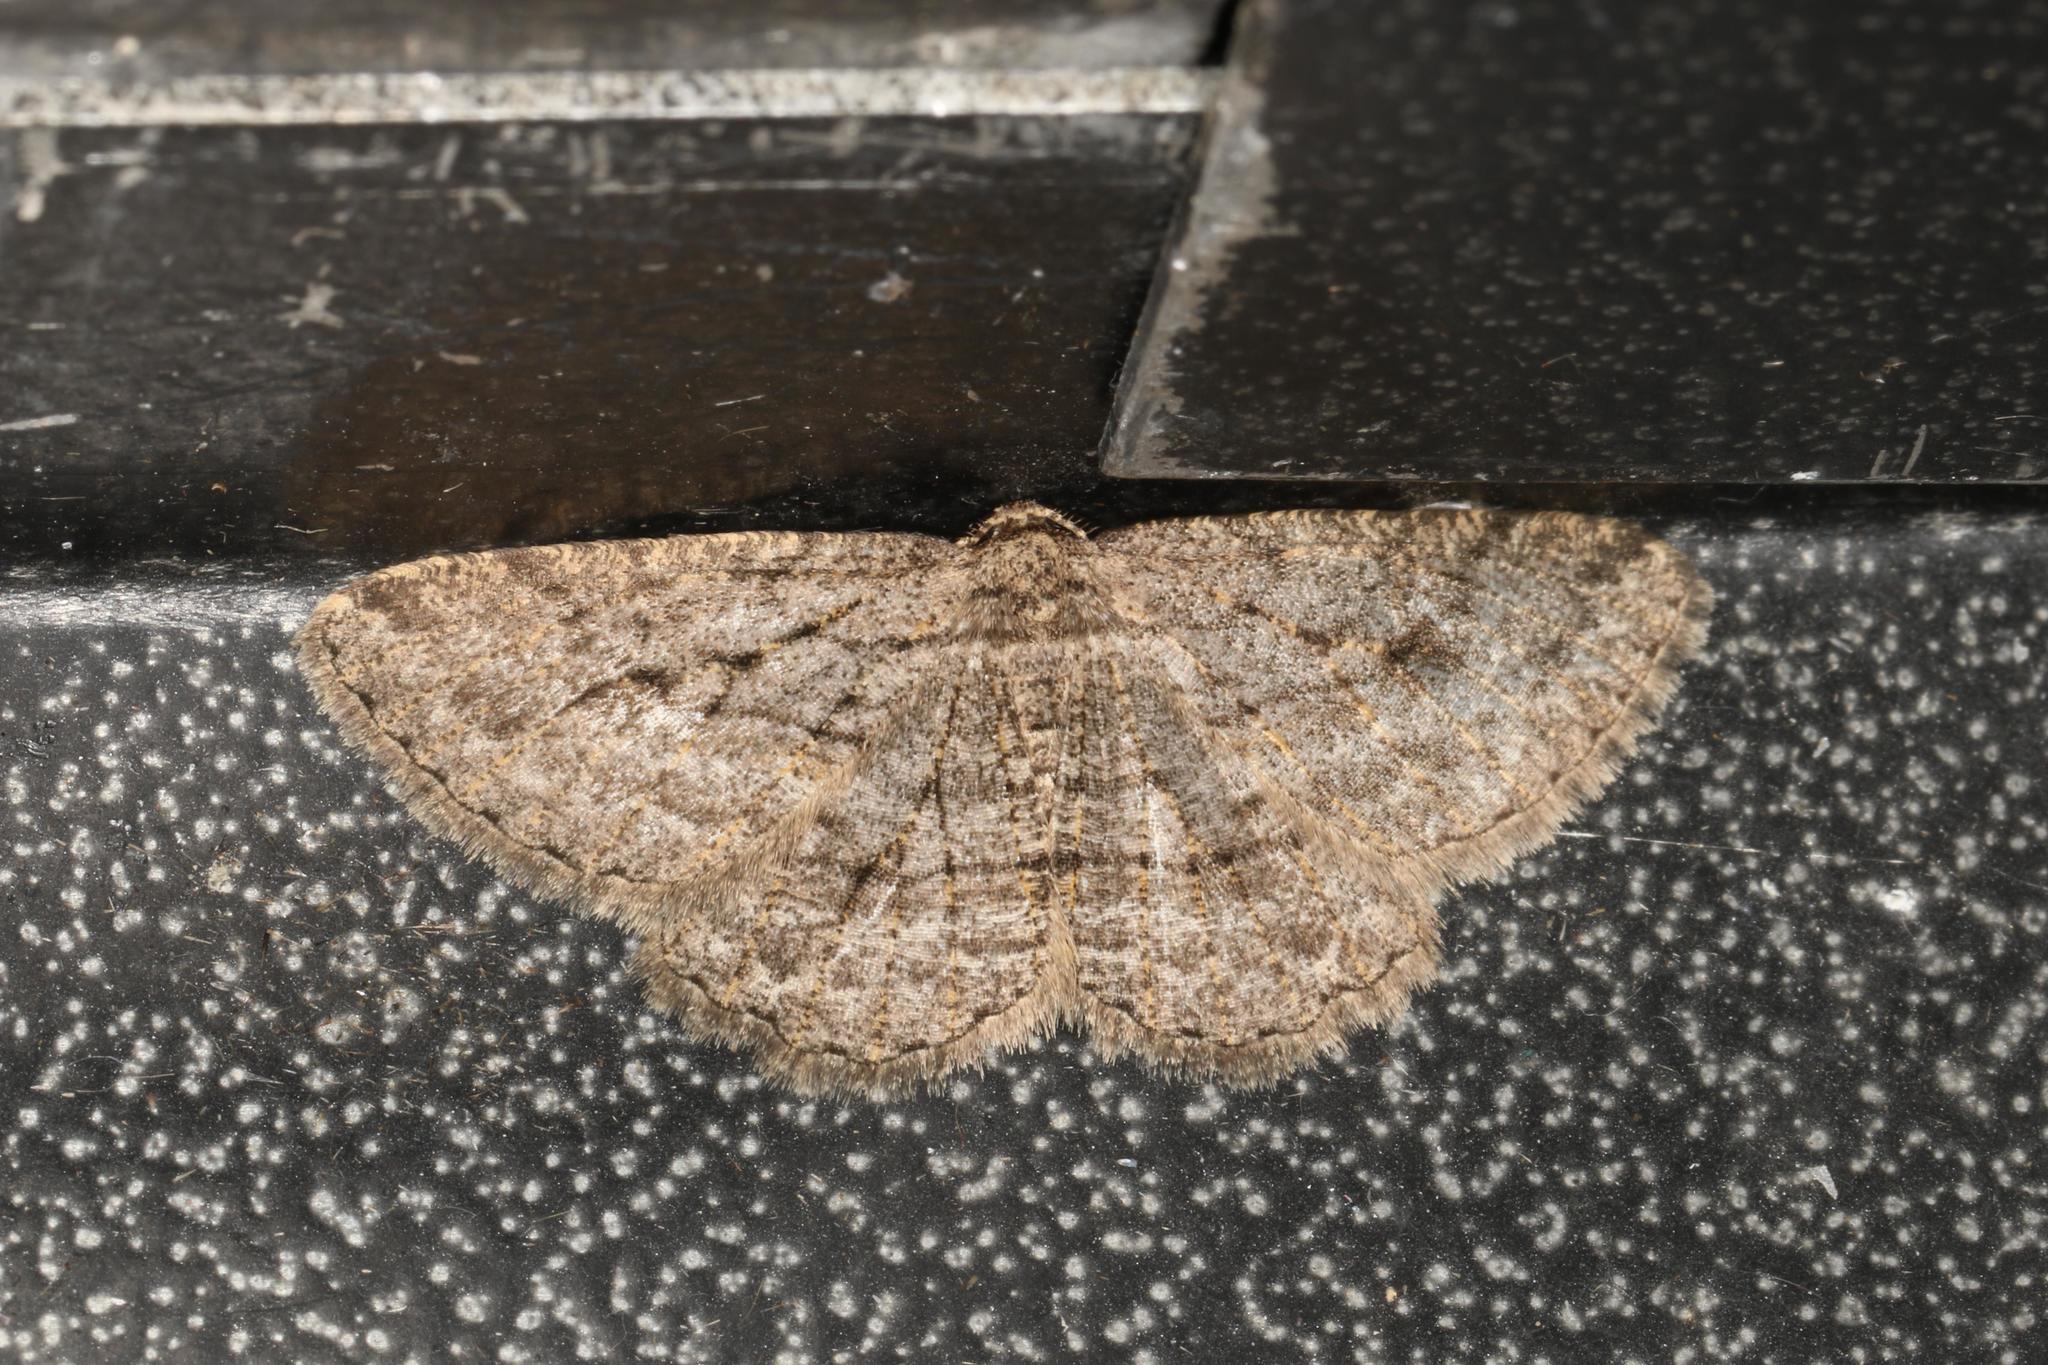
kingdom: Animalia
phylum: Arthropoda
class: Insecta
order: Lepidoptera
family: Geometridae
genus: Zermizinga
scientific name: Zermizinga sinuata
